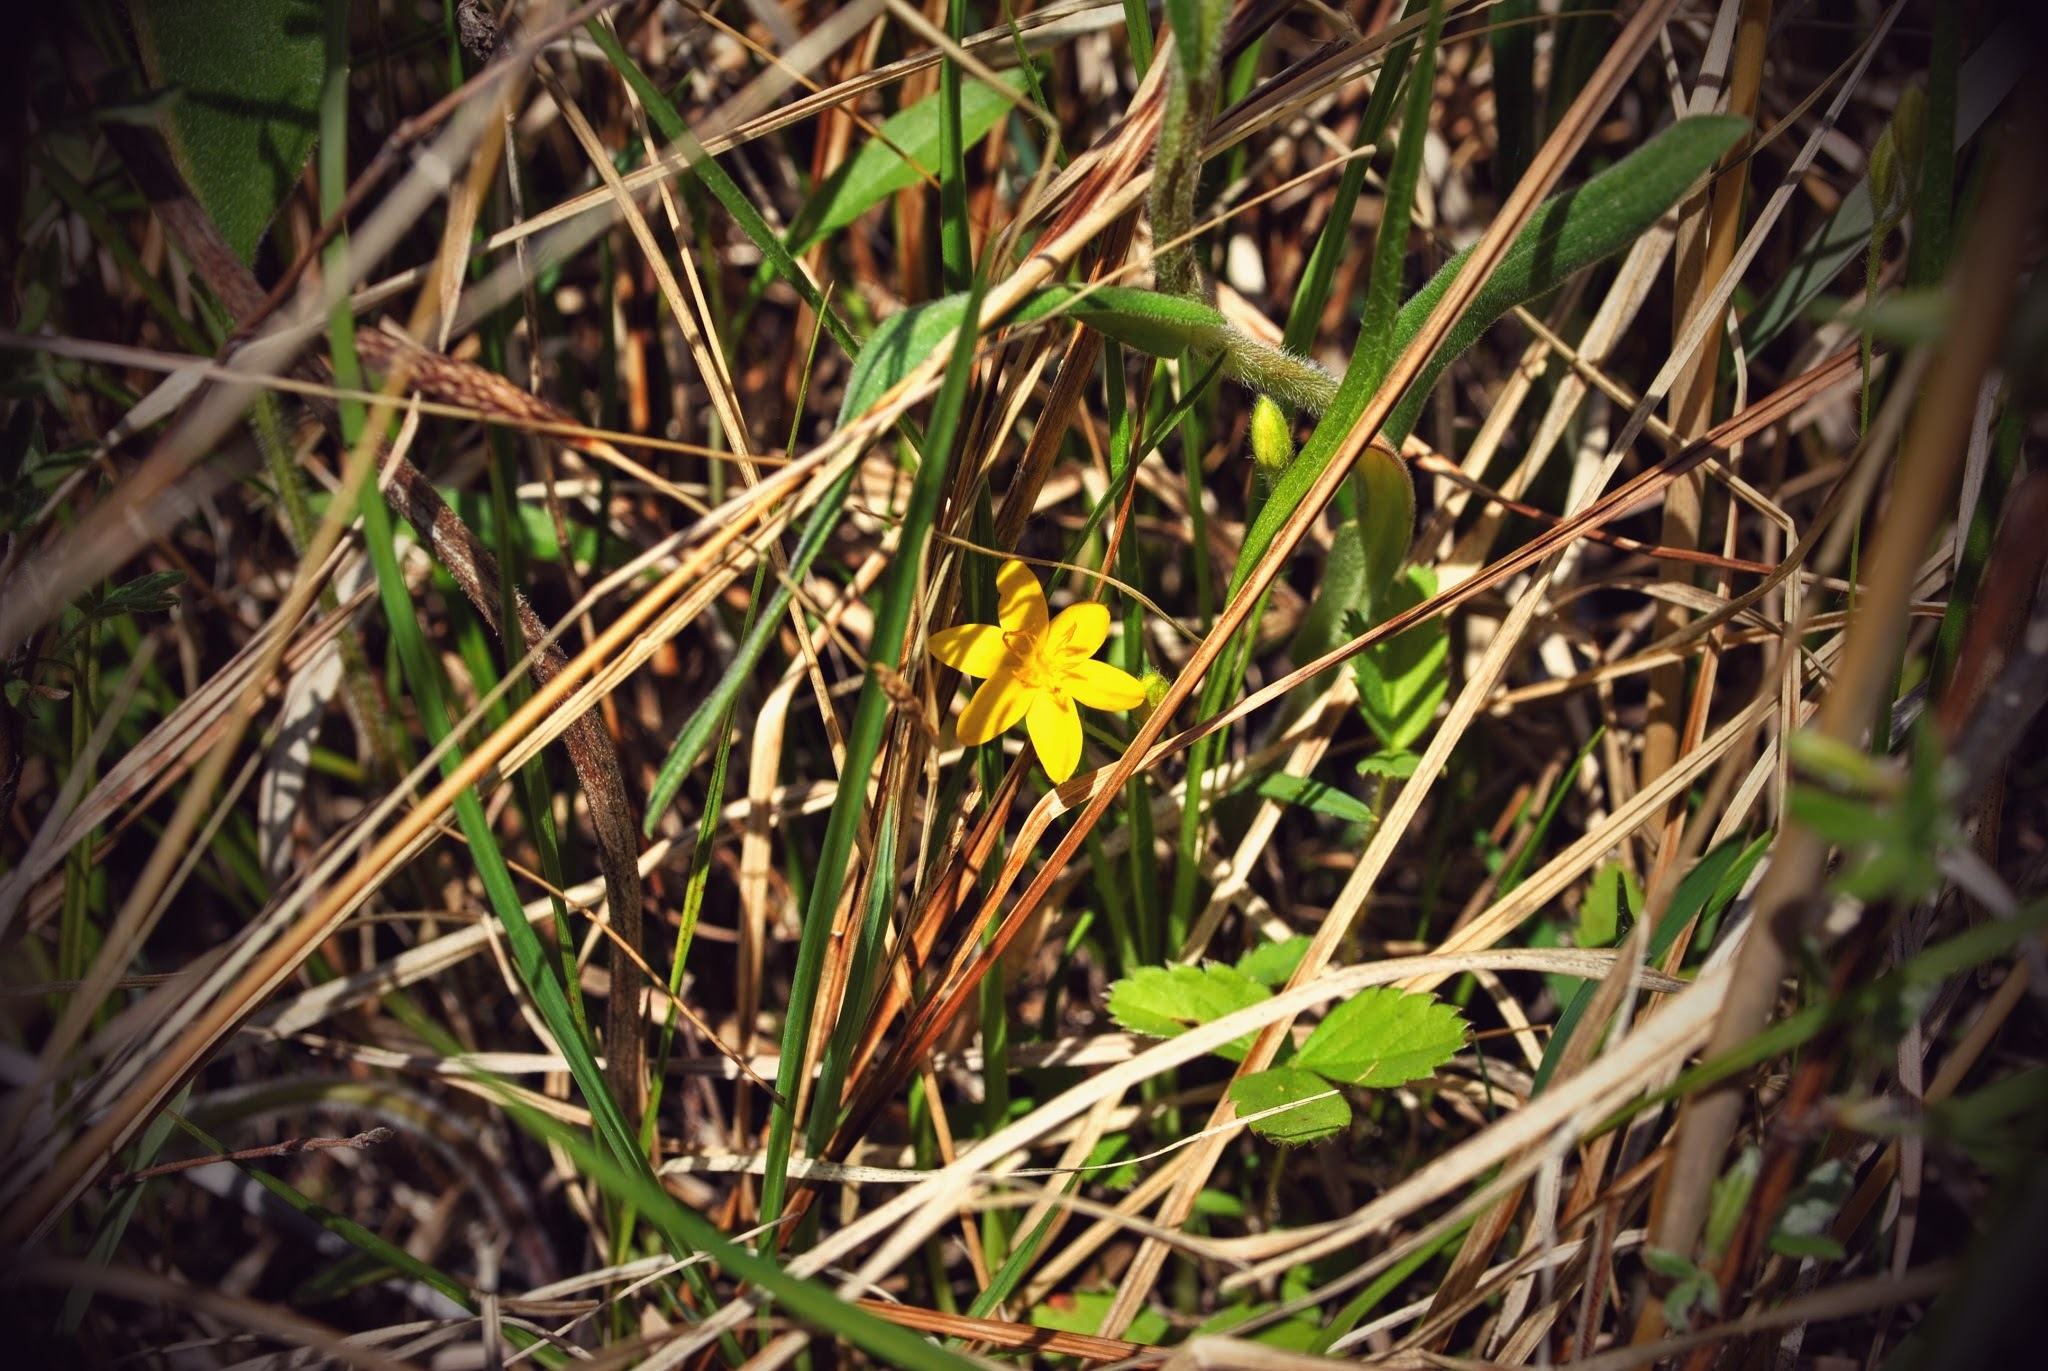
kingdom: Plantae
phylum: Tracheophyta
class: Liliopsida
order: Asparagales
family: Hypoxidaceae
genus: Hypoxis
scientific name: Hypoxis hirsuta
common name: Common goldstar
